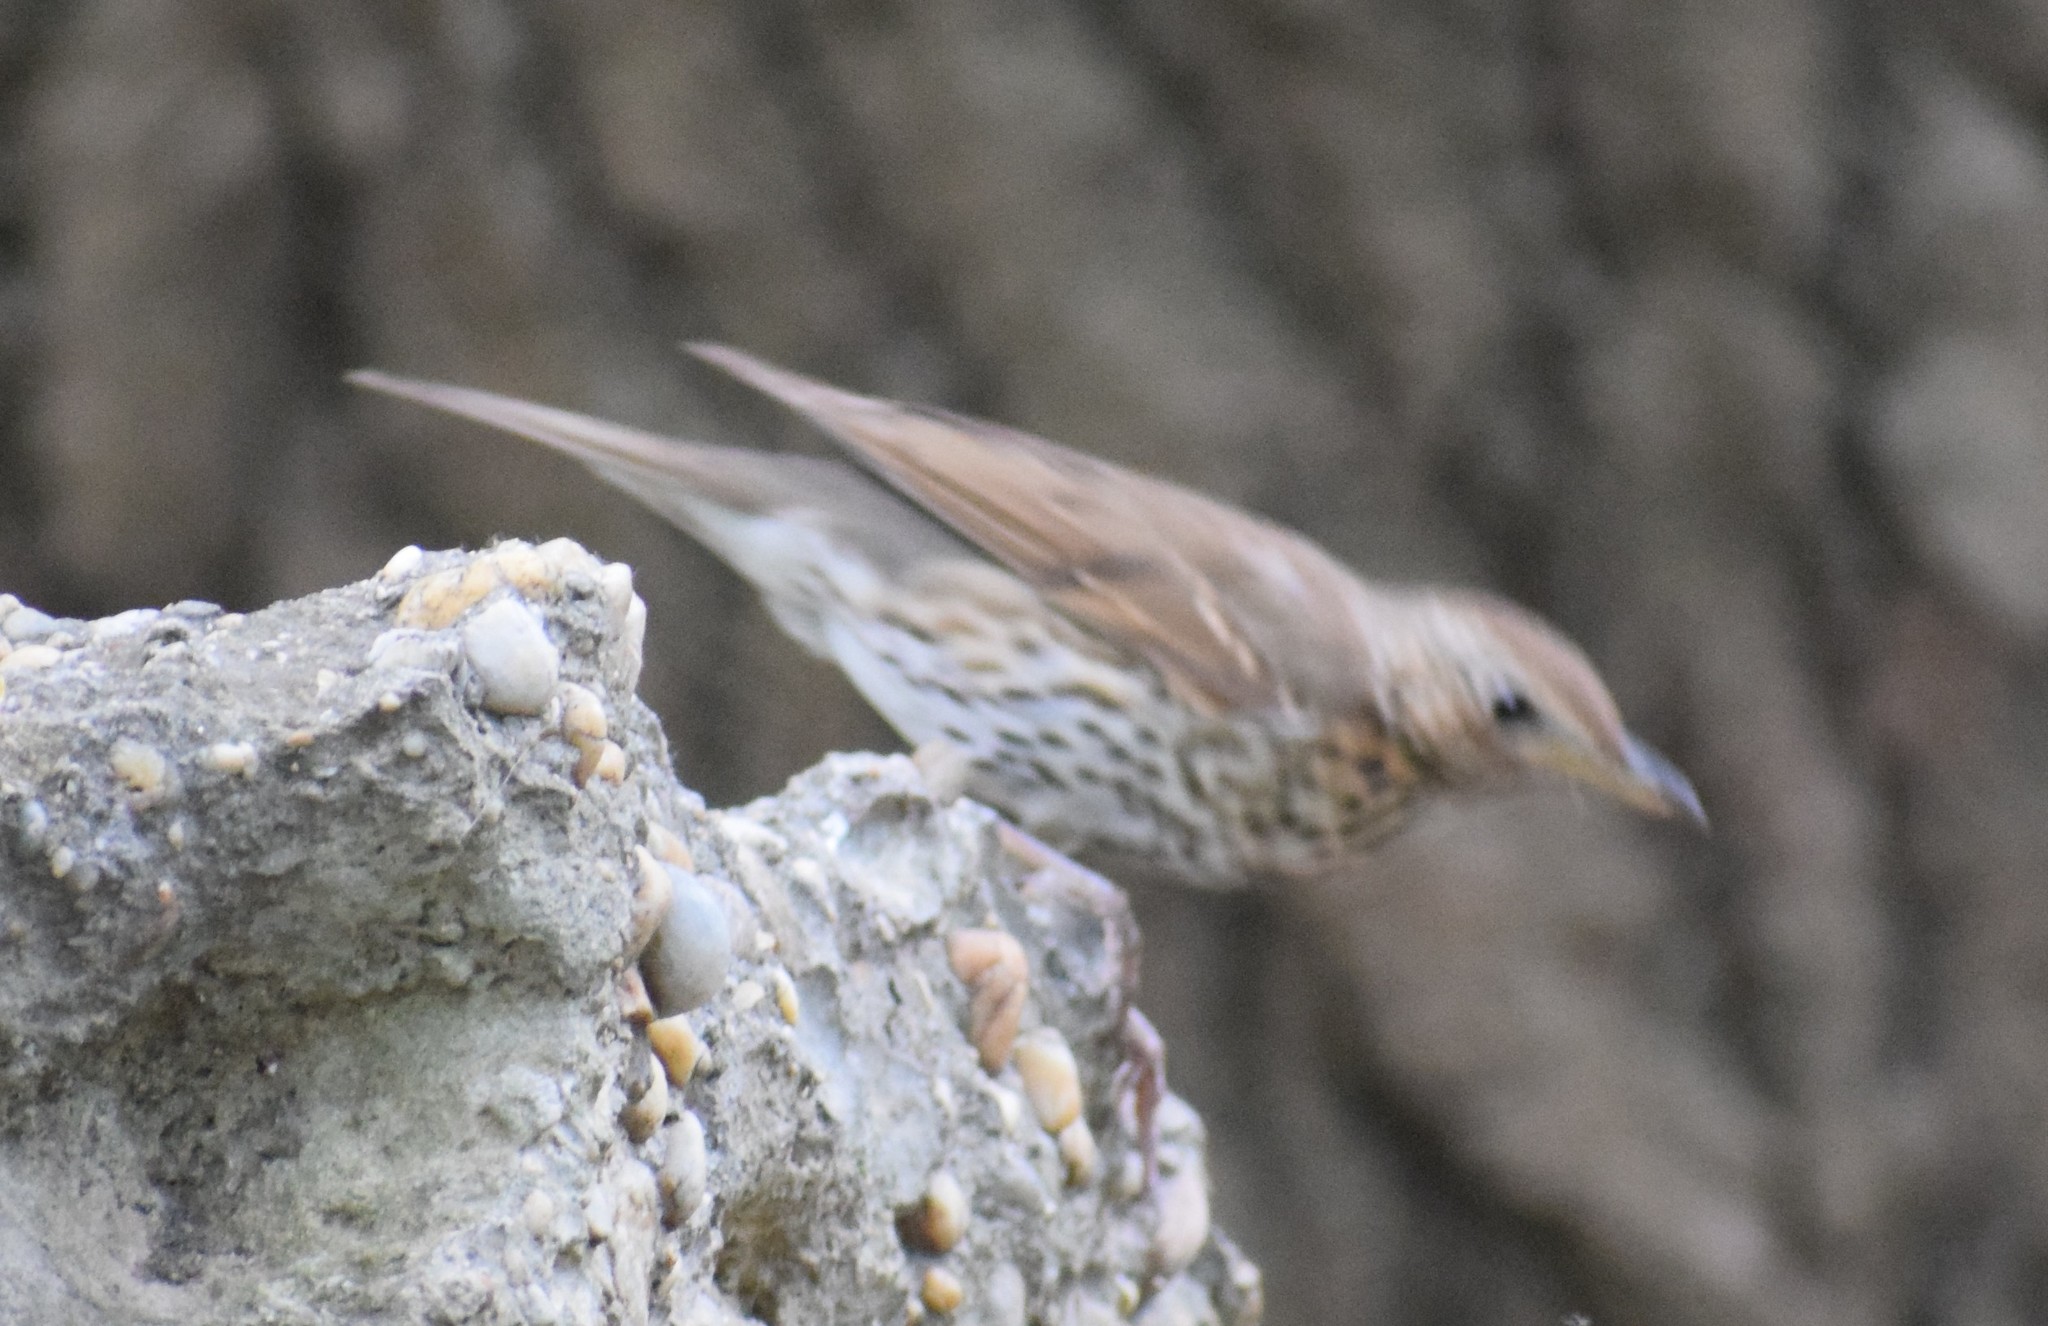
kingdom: Animalia
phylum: Chordata
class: Aves
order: Passeriformes
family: Turdidae
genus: Turdus
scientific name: Turdus philomelos
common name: Song thrush
